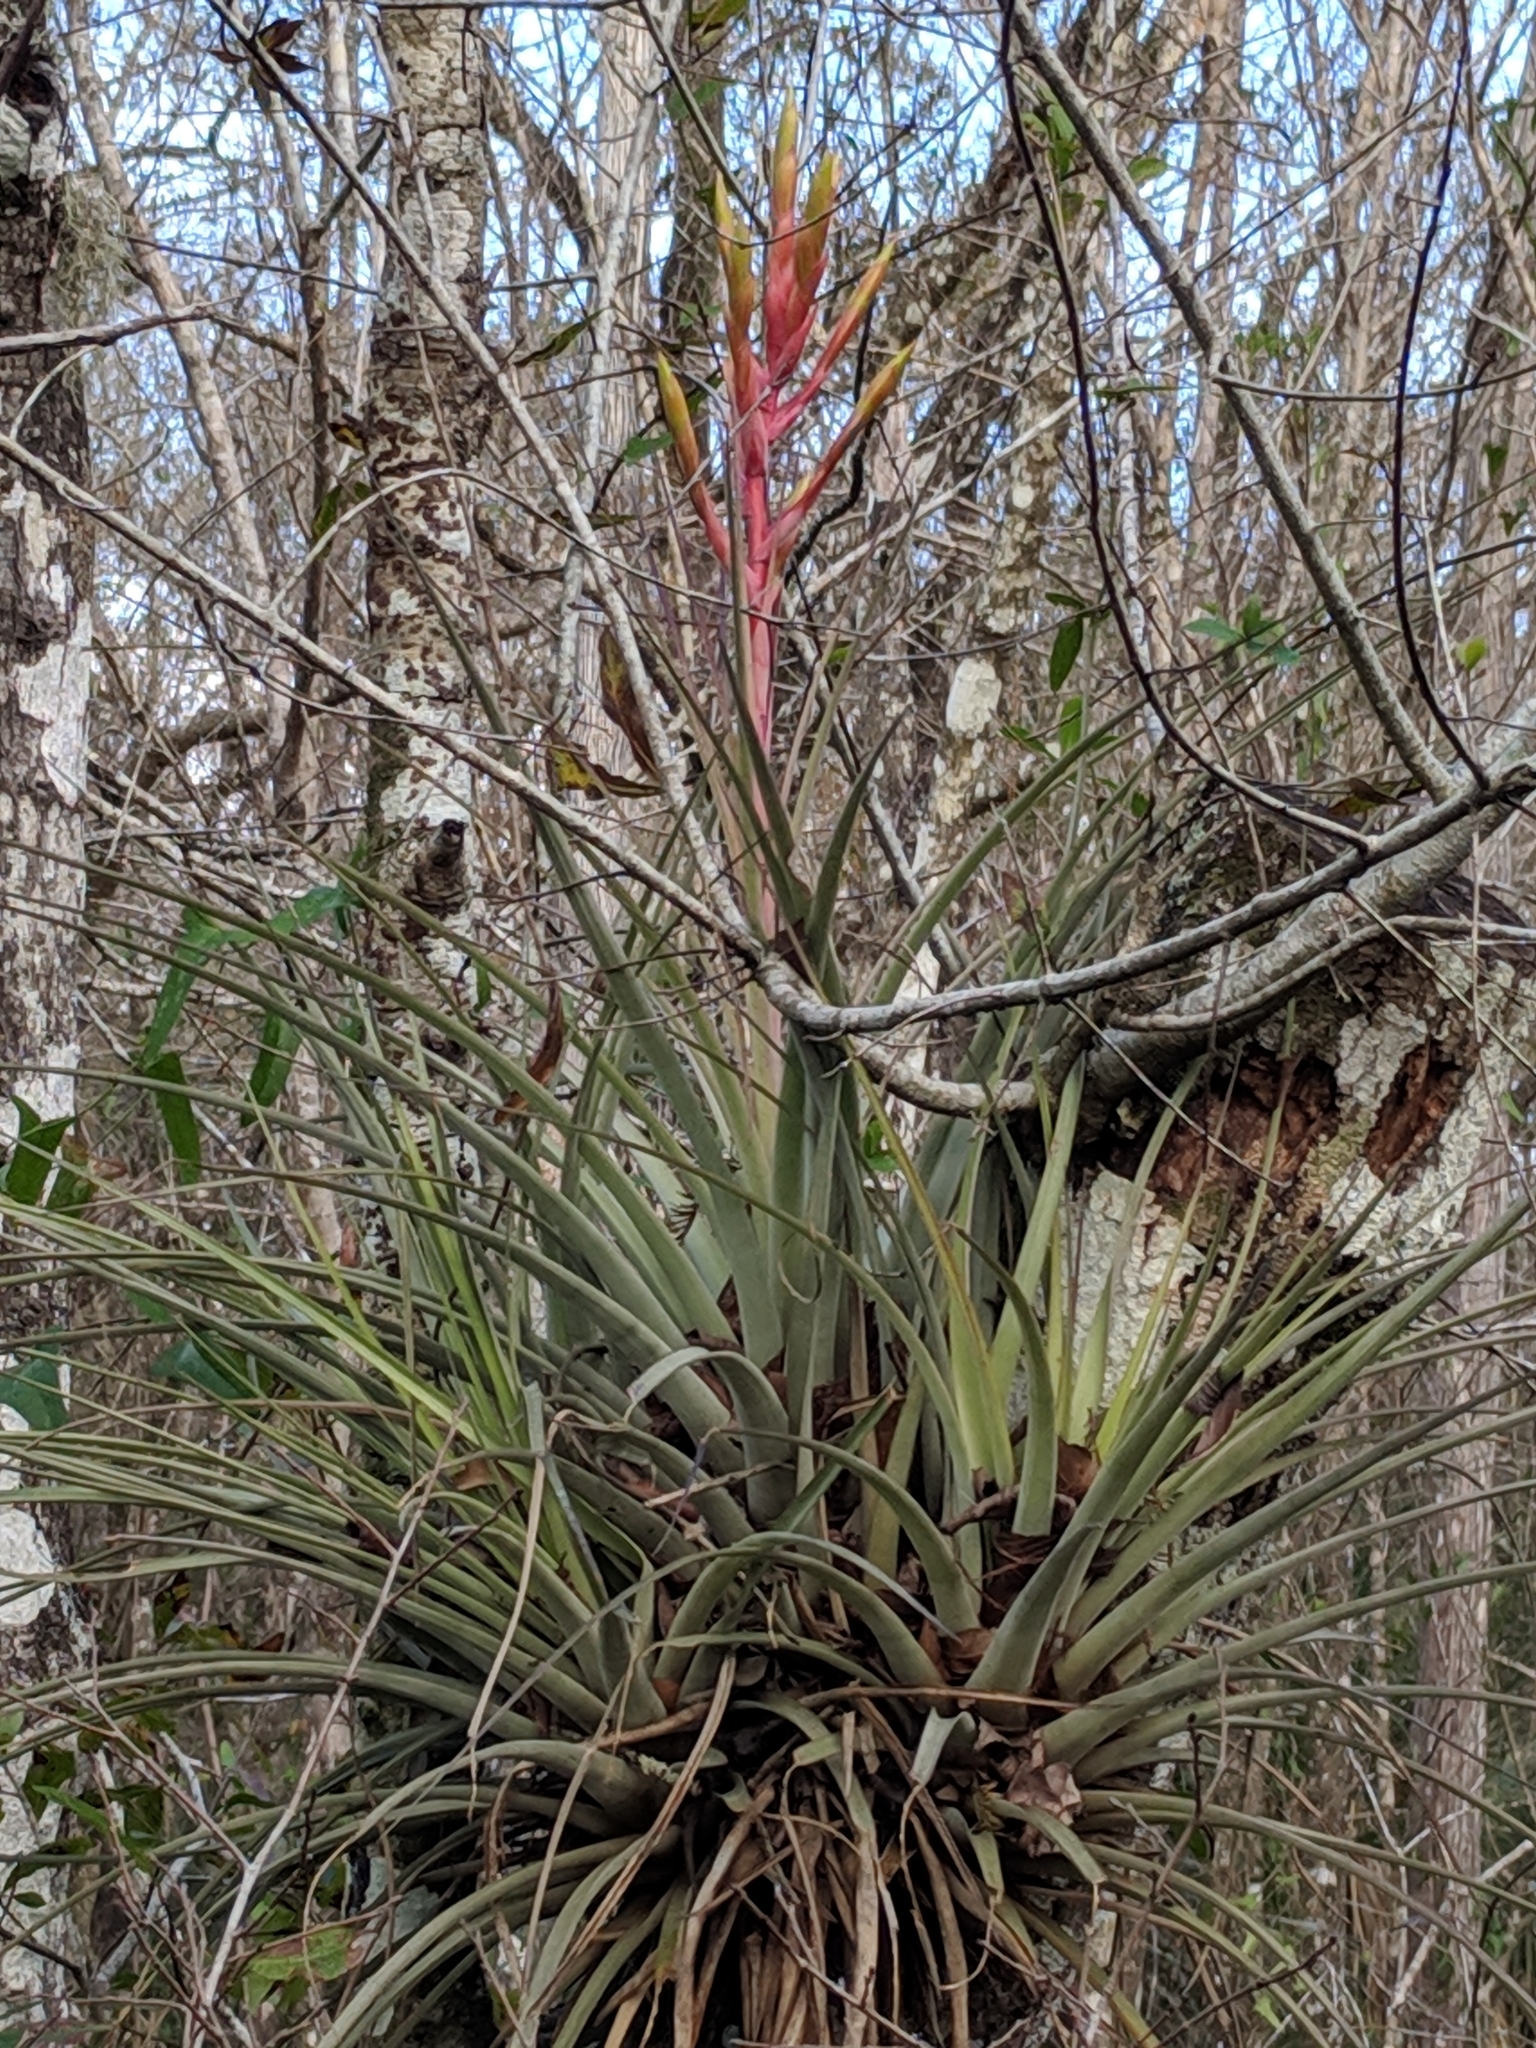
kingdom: Plantae
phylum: Tracheophyta
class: Liliopsida
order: Poales
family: Bromeliaceae
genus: Tillandsia
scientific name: Tillandsia fasciculata
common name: Giant airplant
